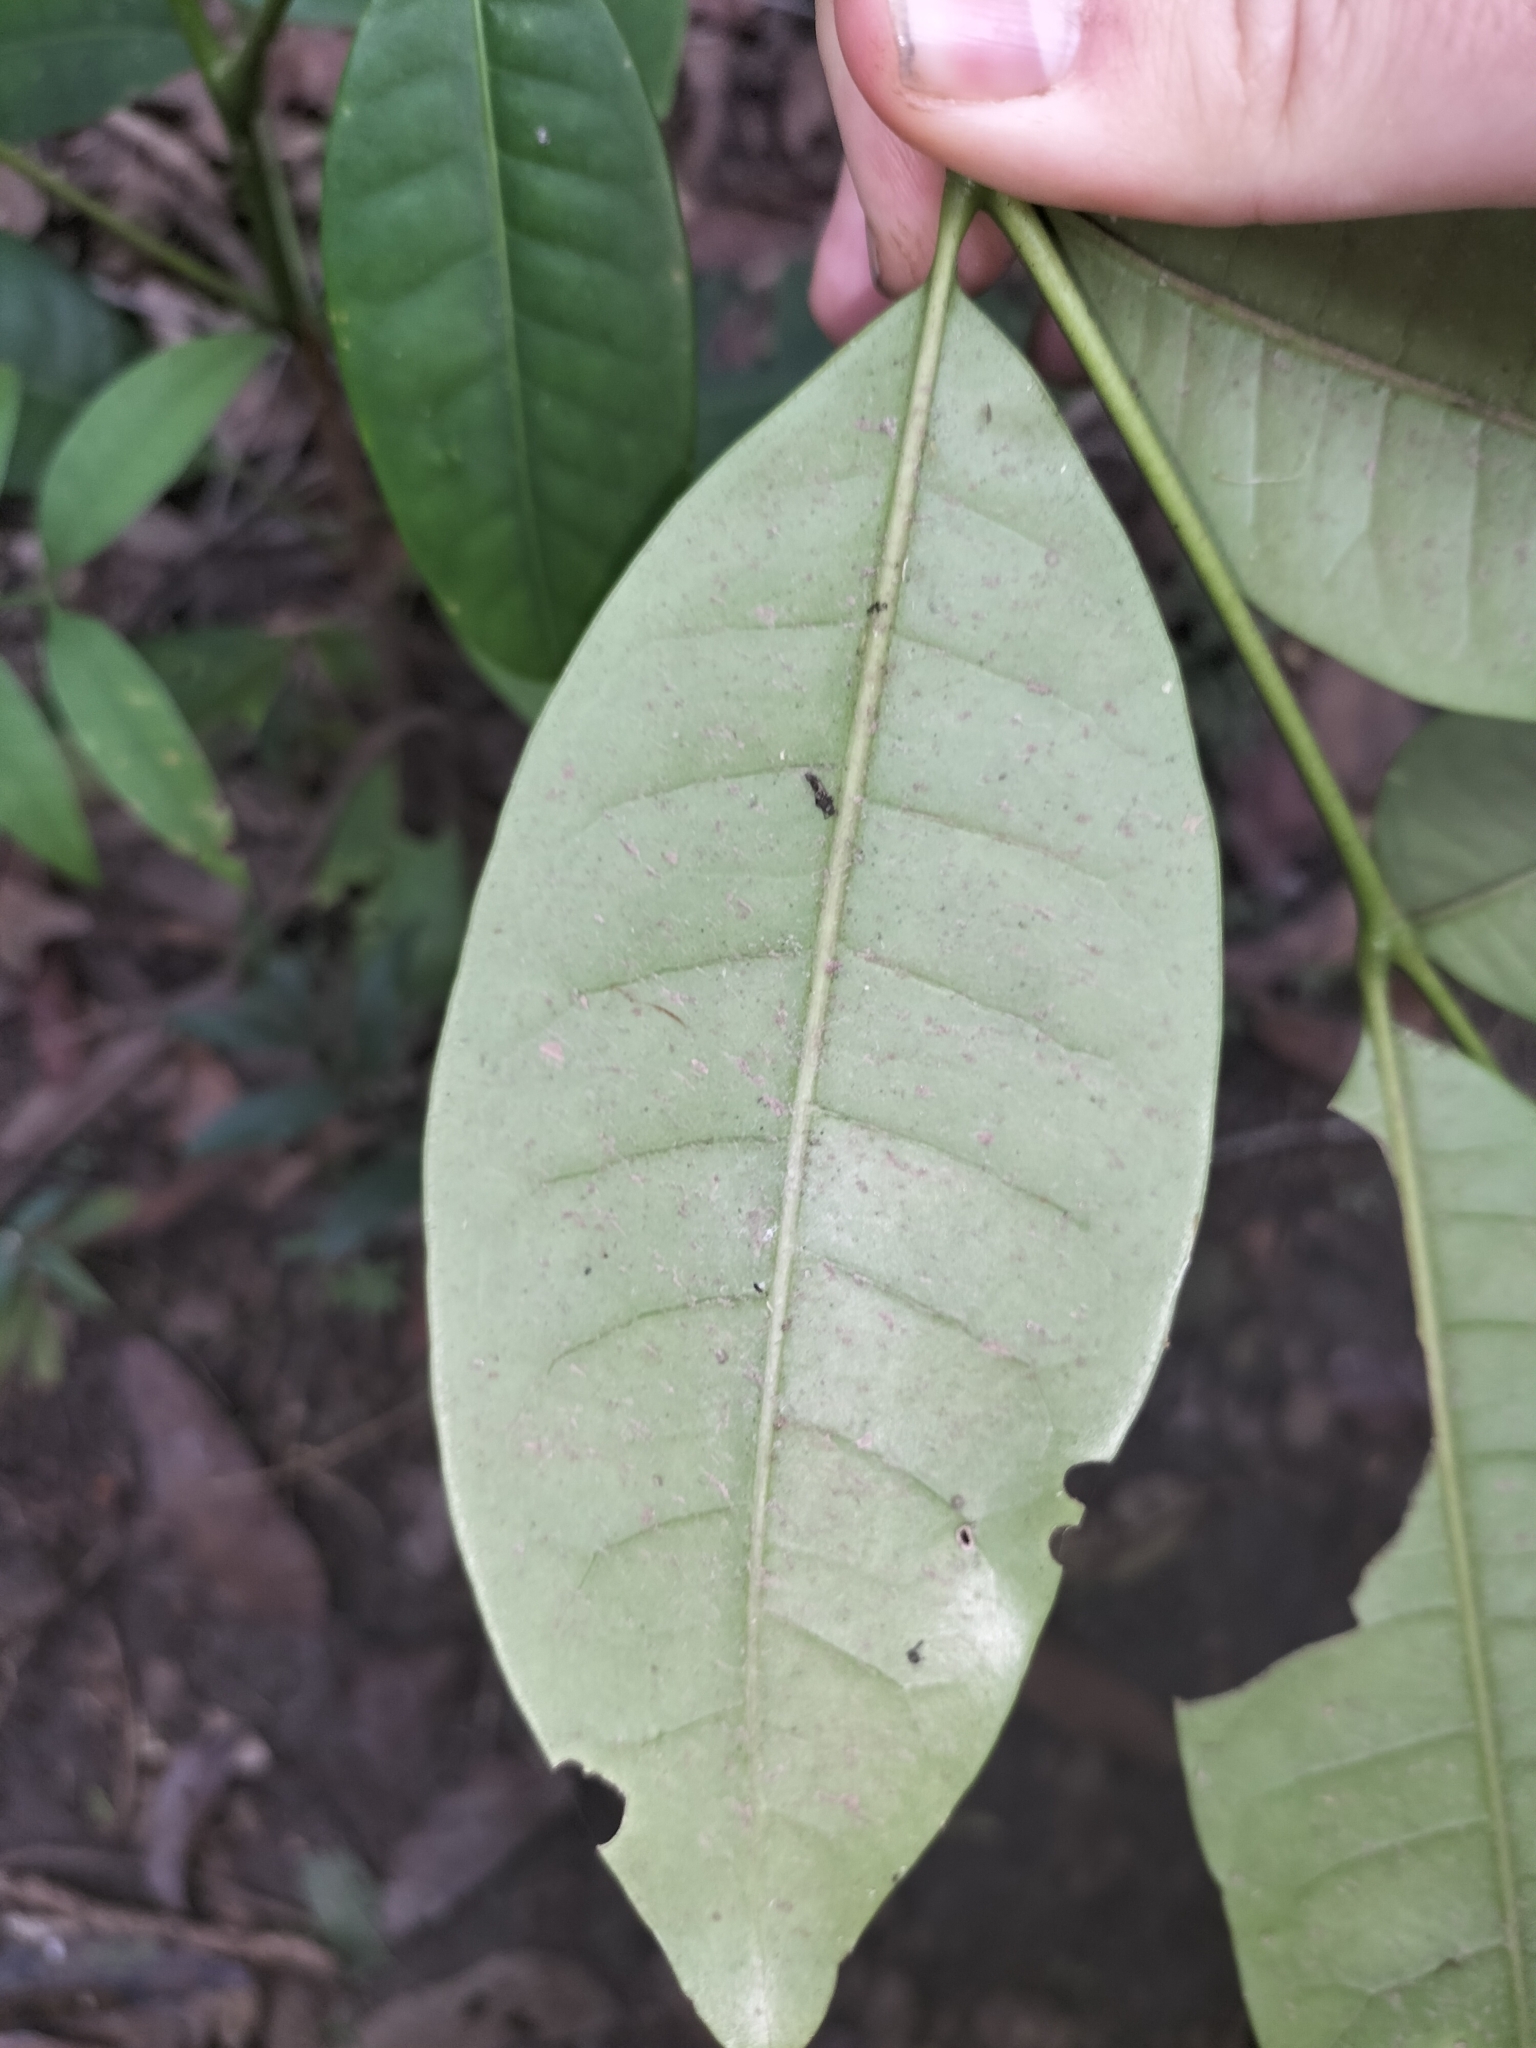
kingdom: Plantae
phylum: Tracheophyta
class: Magnoliopsida
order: Sapindales
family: Rutaceae
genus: Flindersia
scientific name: Flindersia brayleyana
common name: Queensland maple
